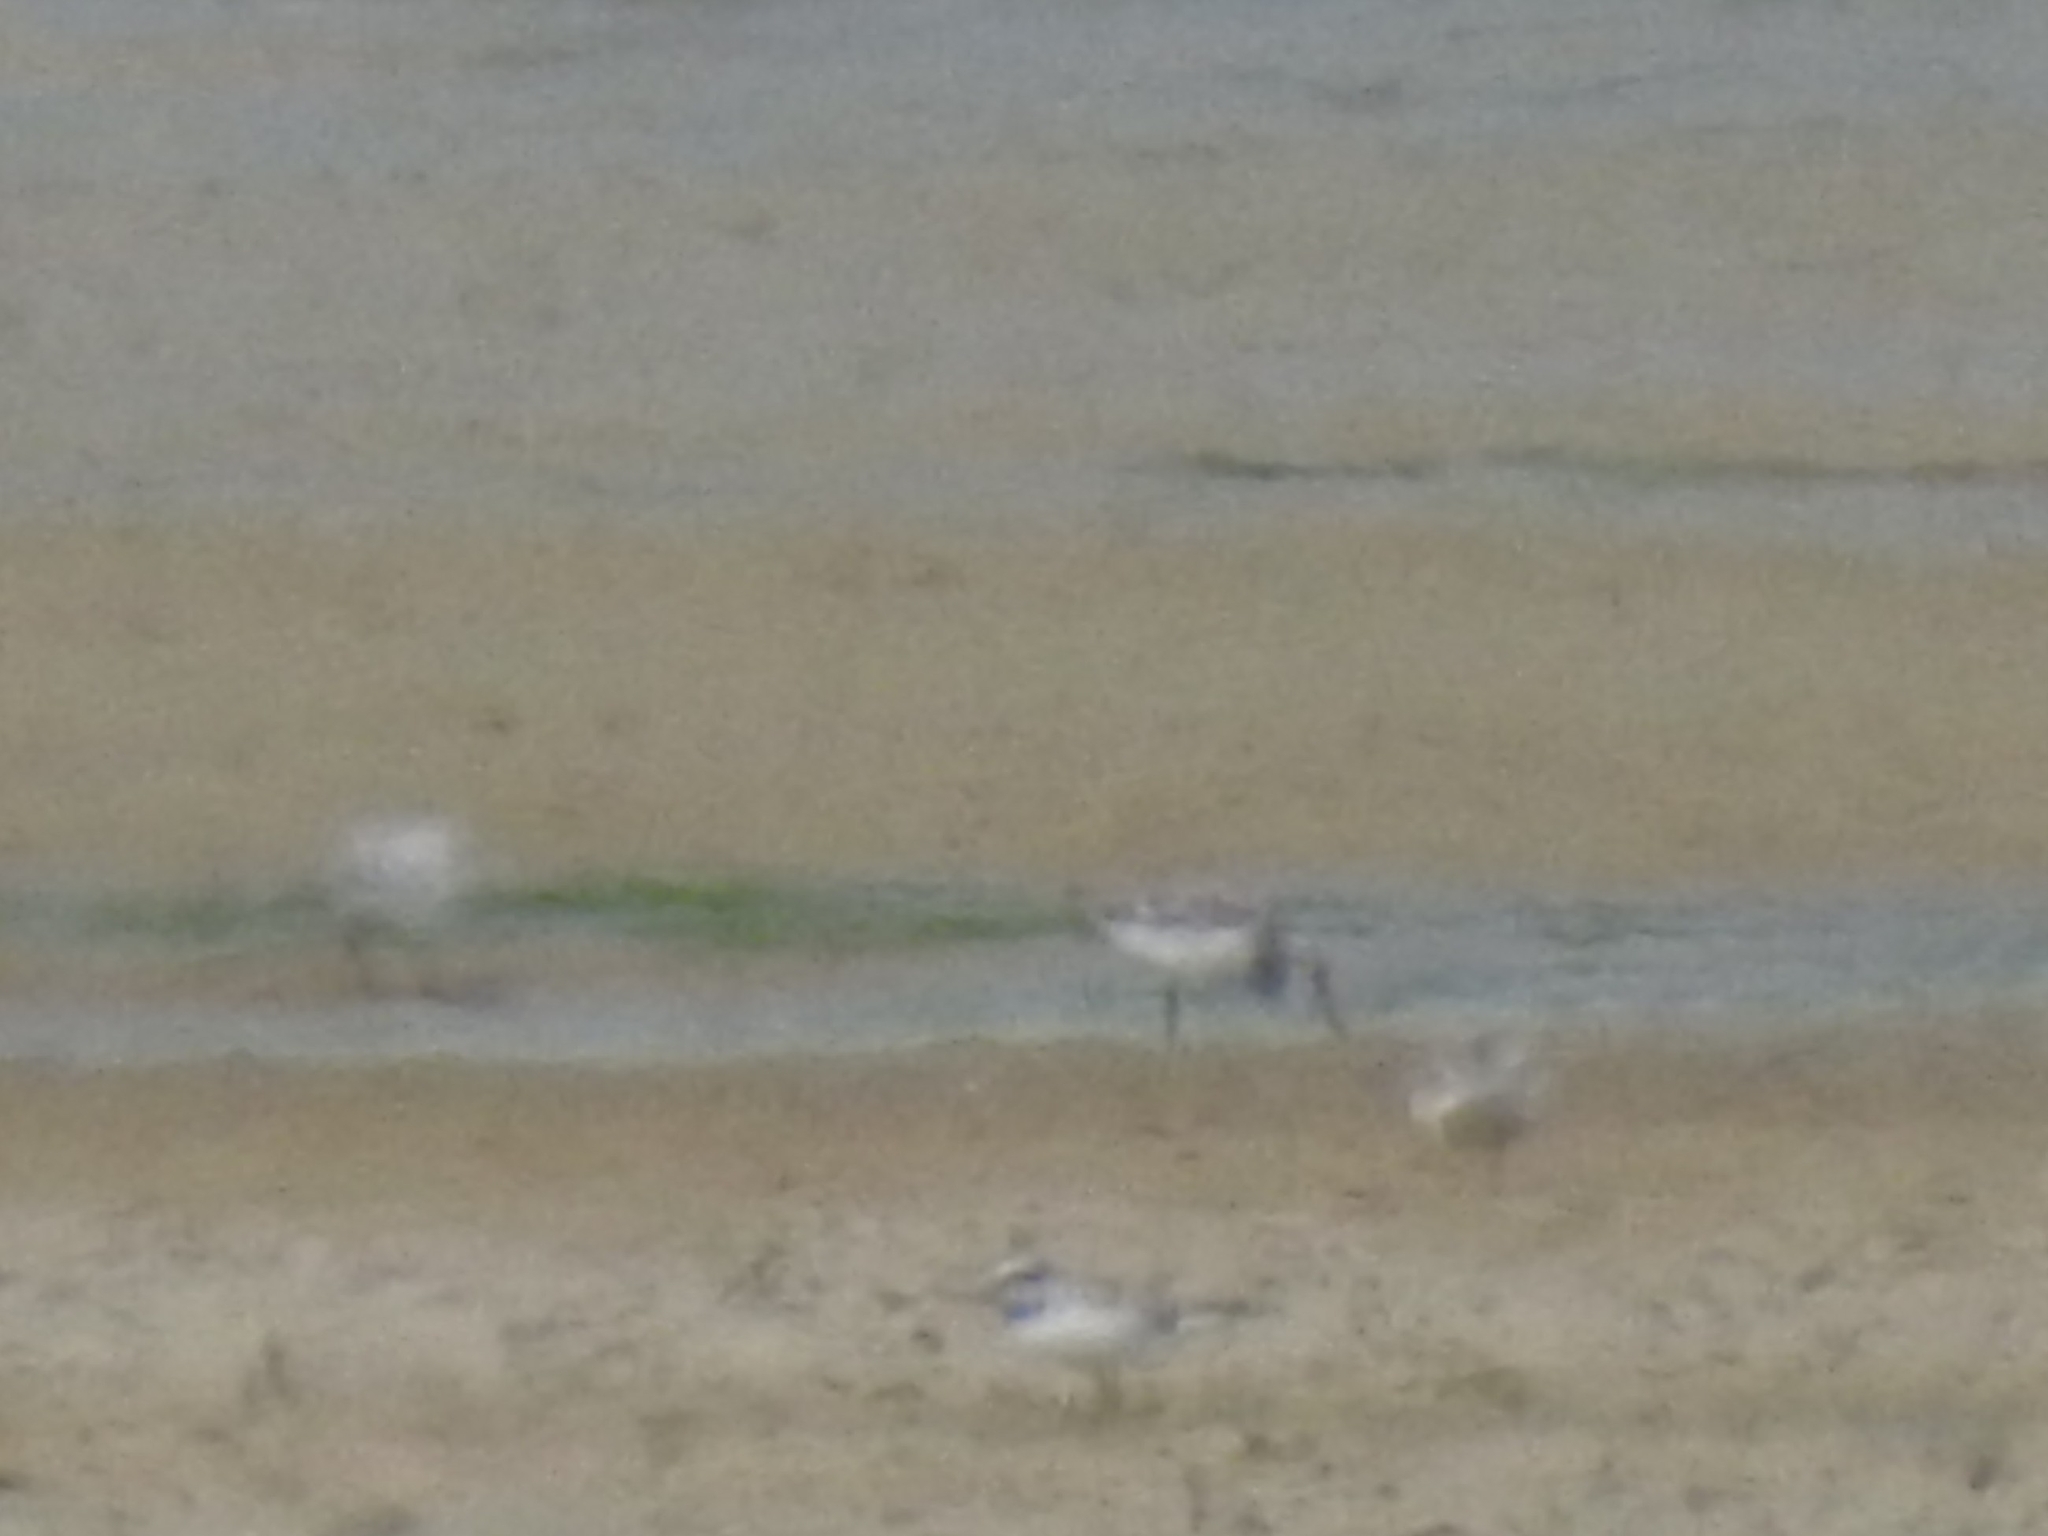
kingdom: Animalia
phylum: Chordata
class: Aves
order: Charadriiformes
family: Scolopacidae
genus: Calidris
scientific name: Calidris alba
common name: Sanderling
